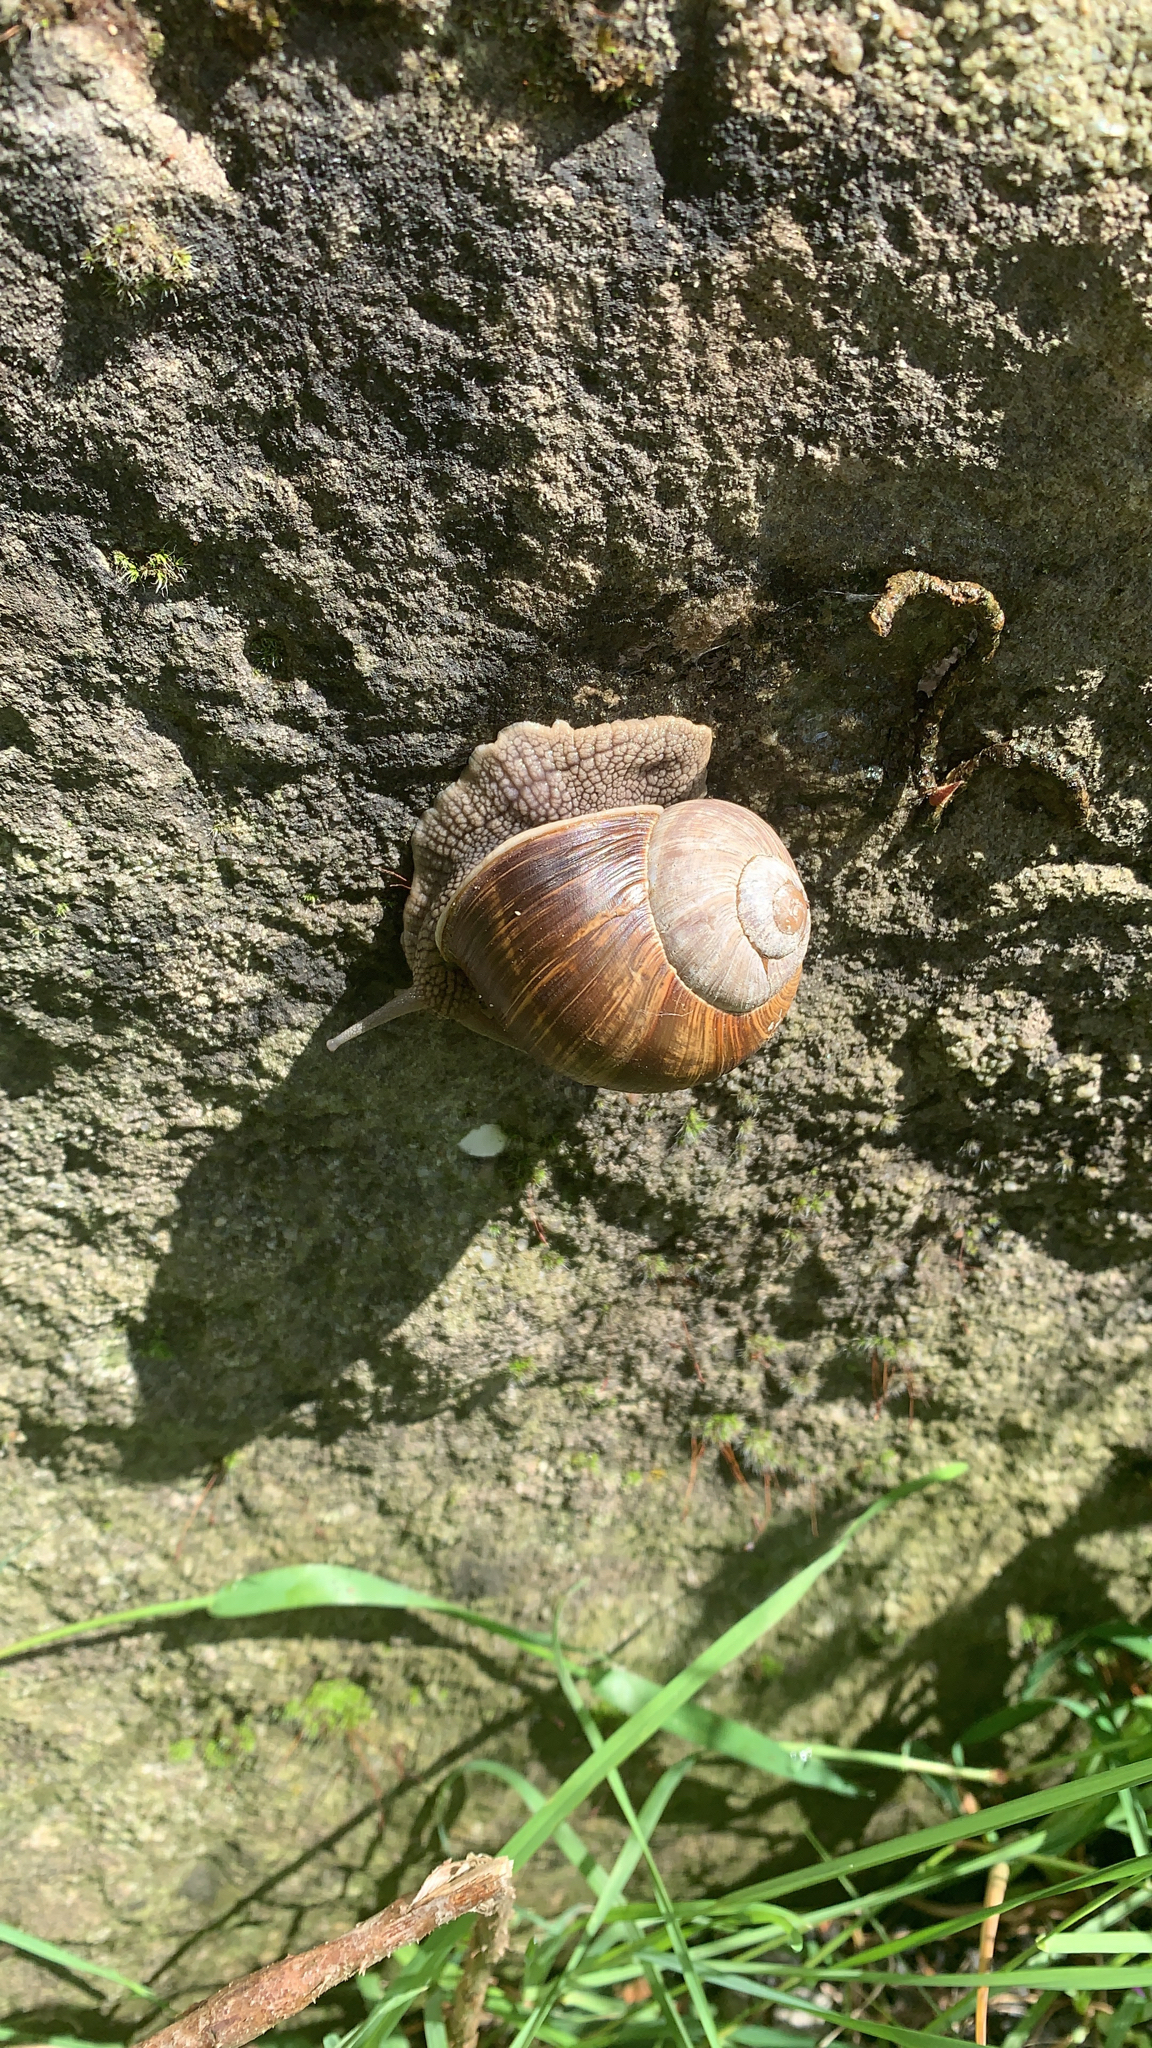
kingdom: Animalia
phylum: Mollusca
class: Gastropoda
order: Stylommatophora
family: Helicidae
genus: Helix
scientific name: Helix pomatia
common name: Roman snail
